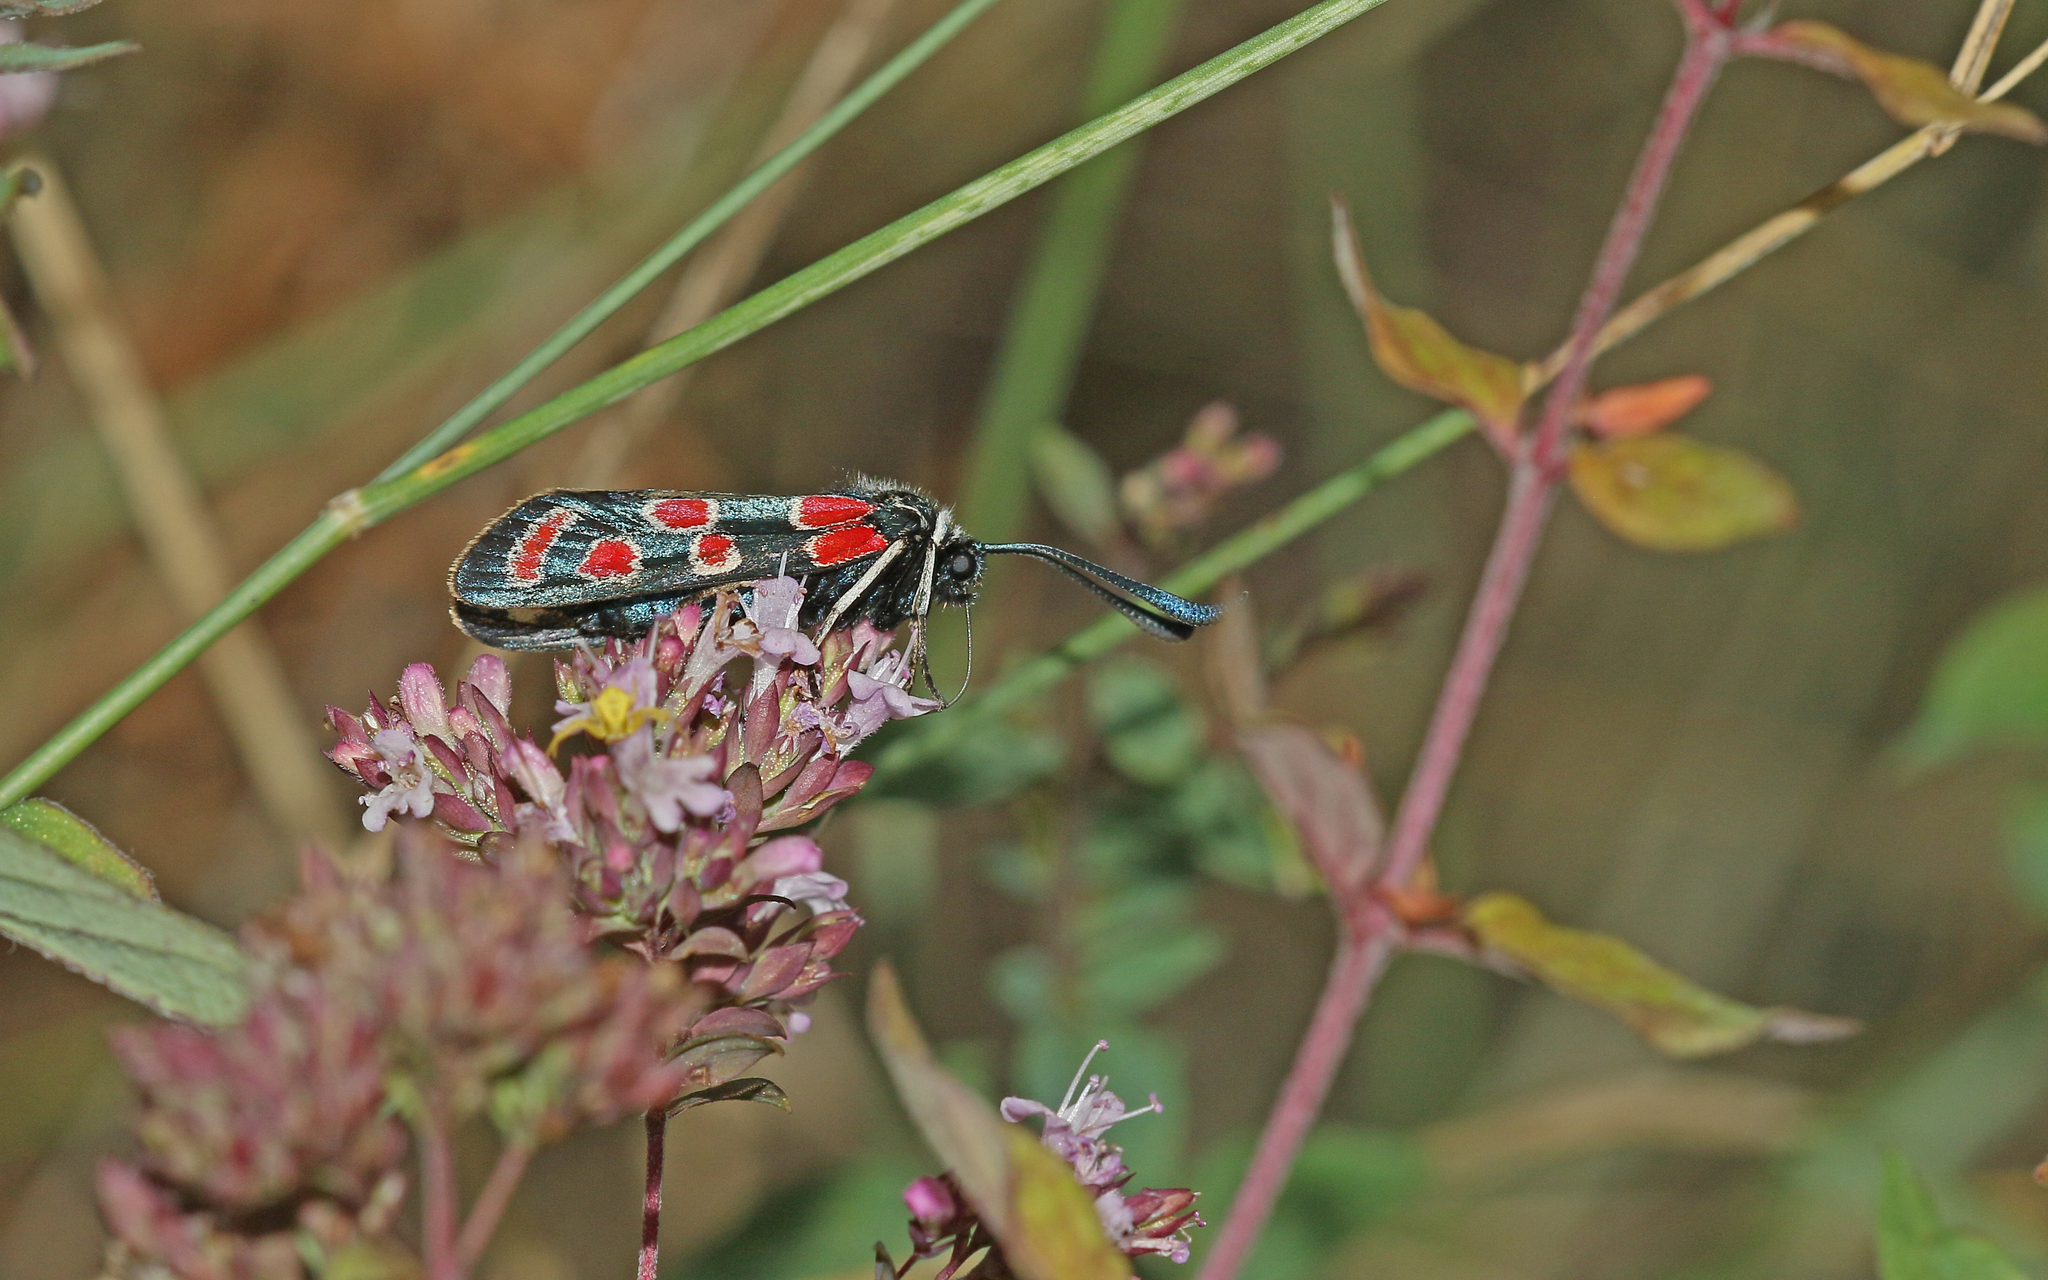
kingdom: Animalia
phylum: Arthropoda
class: Insecta
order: Lepidoptera
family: Zygaenidae
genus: Zygaena
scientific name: Zygaena carniolica
